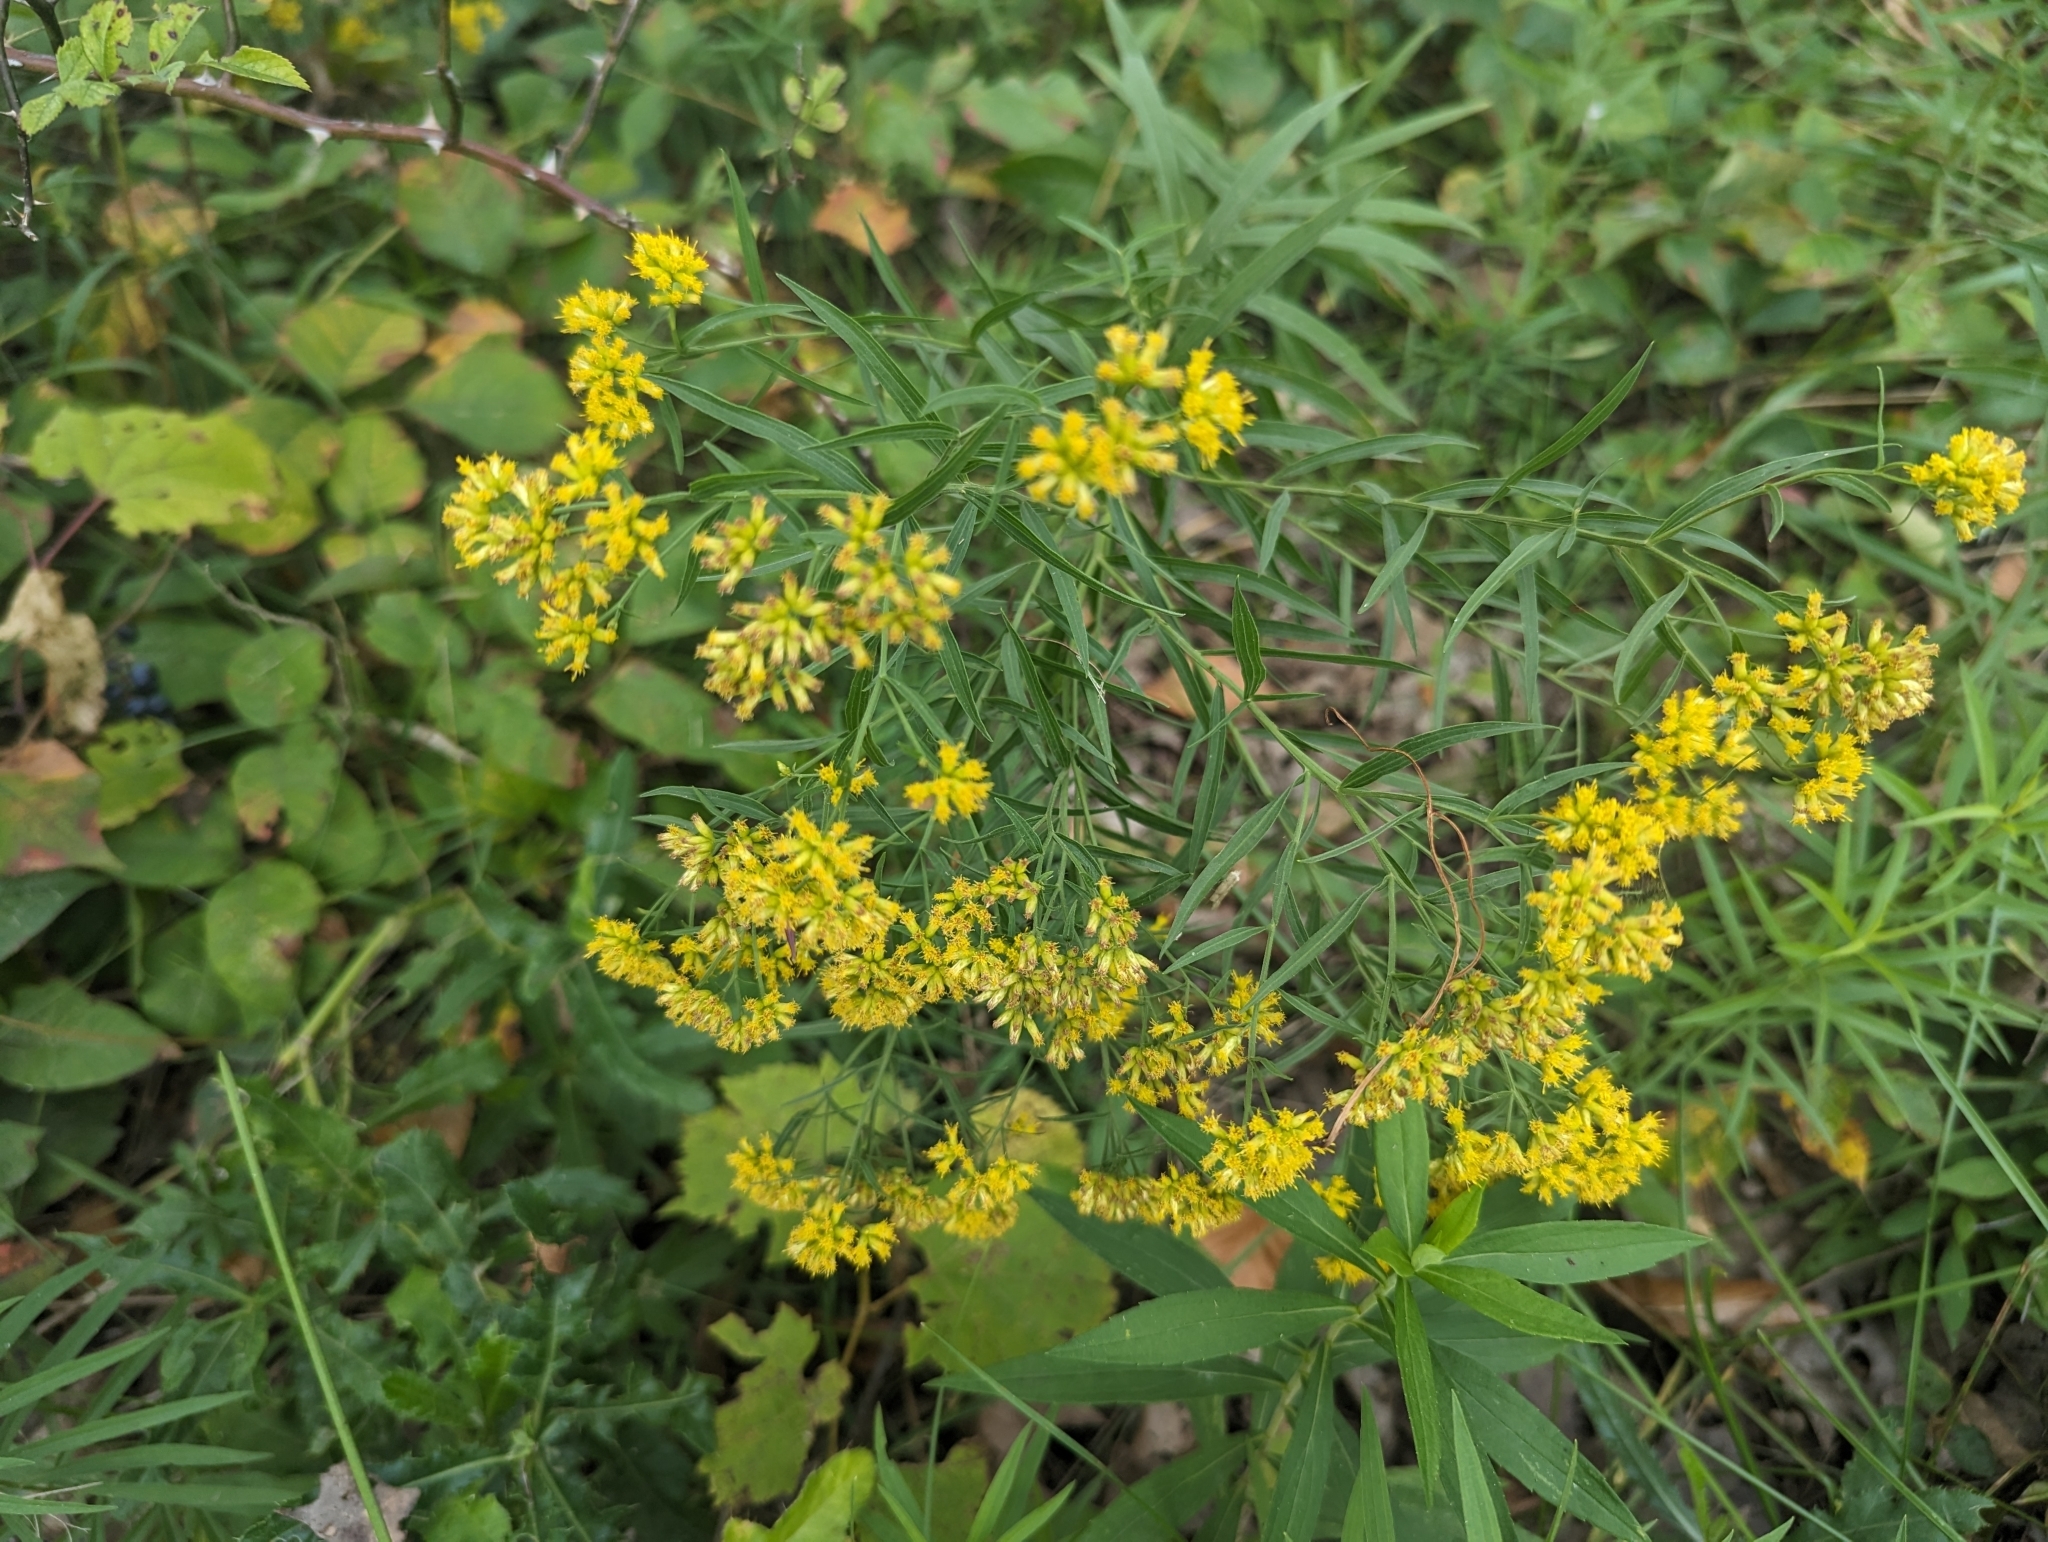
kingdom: Plantae
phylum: Tracheophyta
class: Magnoliopsida
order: Asterales
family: Asteraceae
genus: Euthamia
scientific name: Euthamia graminifolia
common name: Common goldentop
